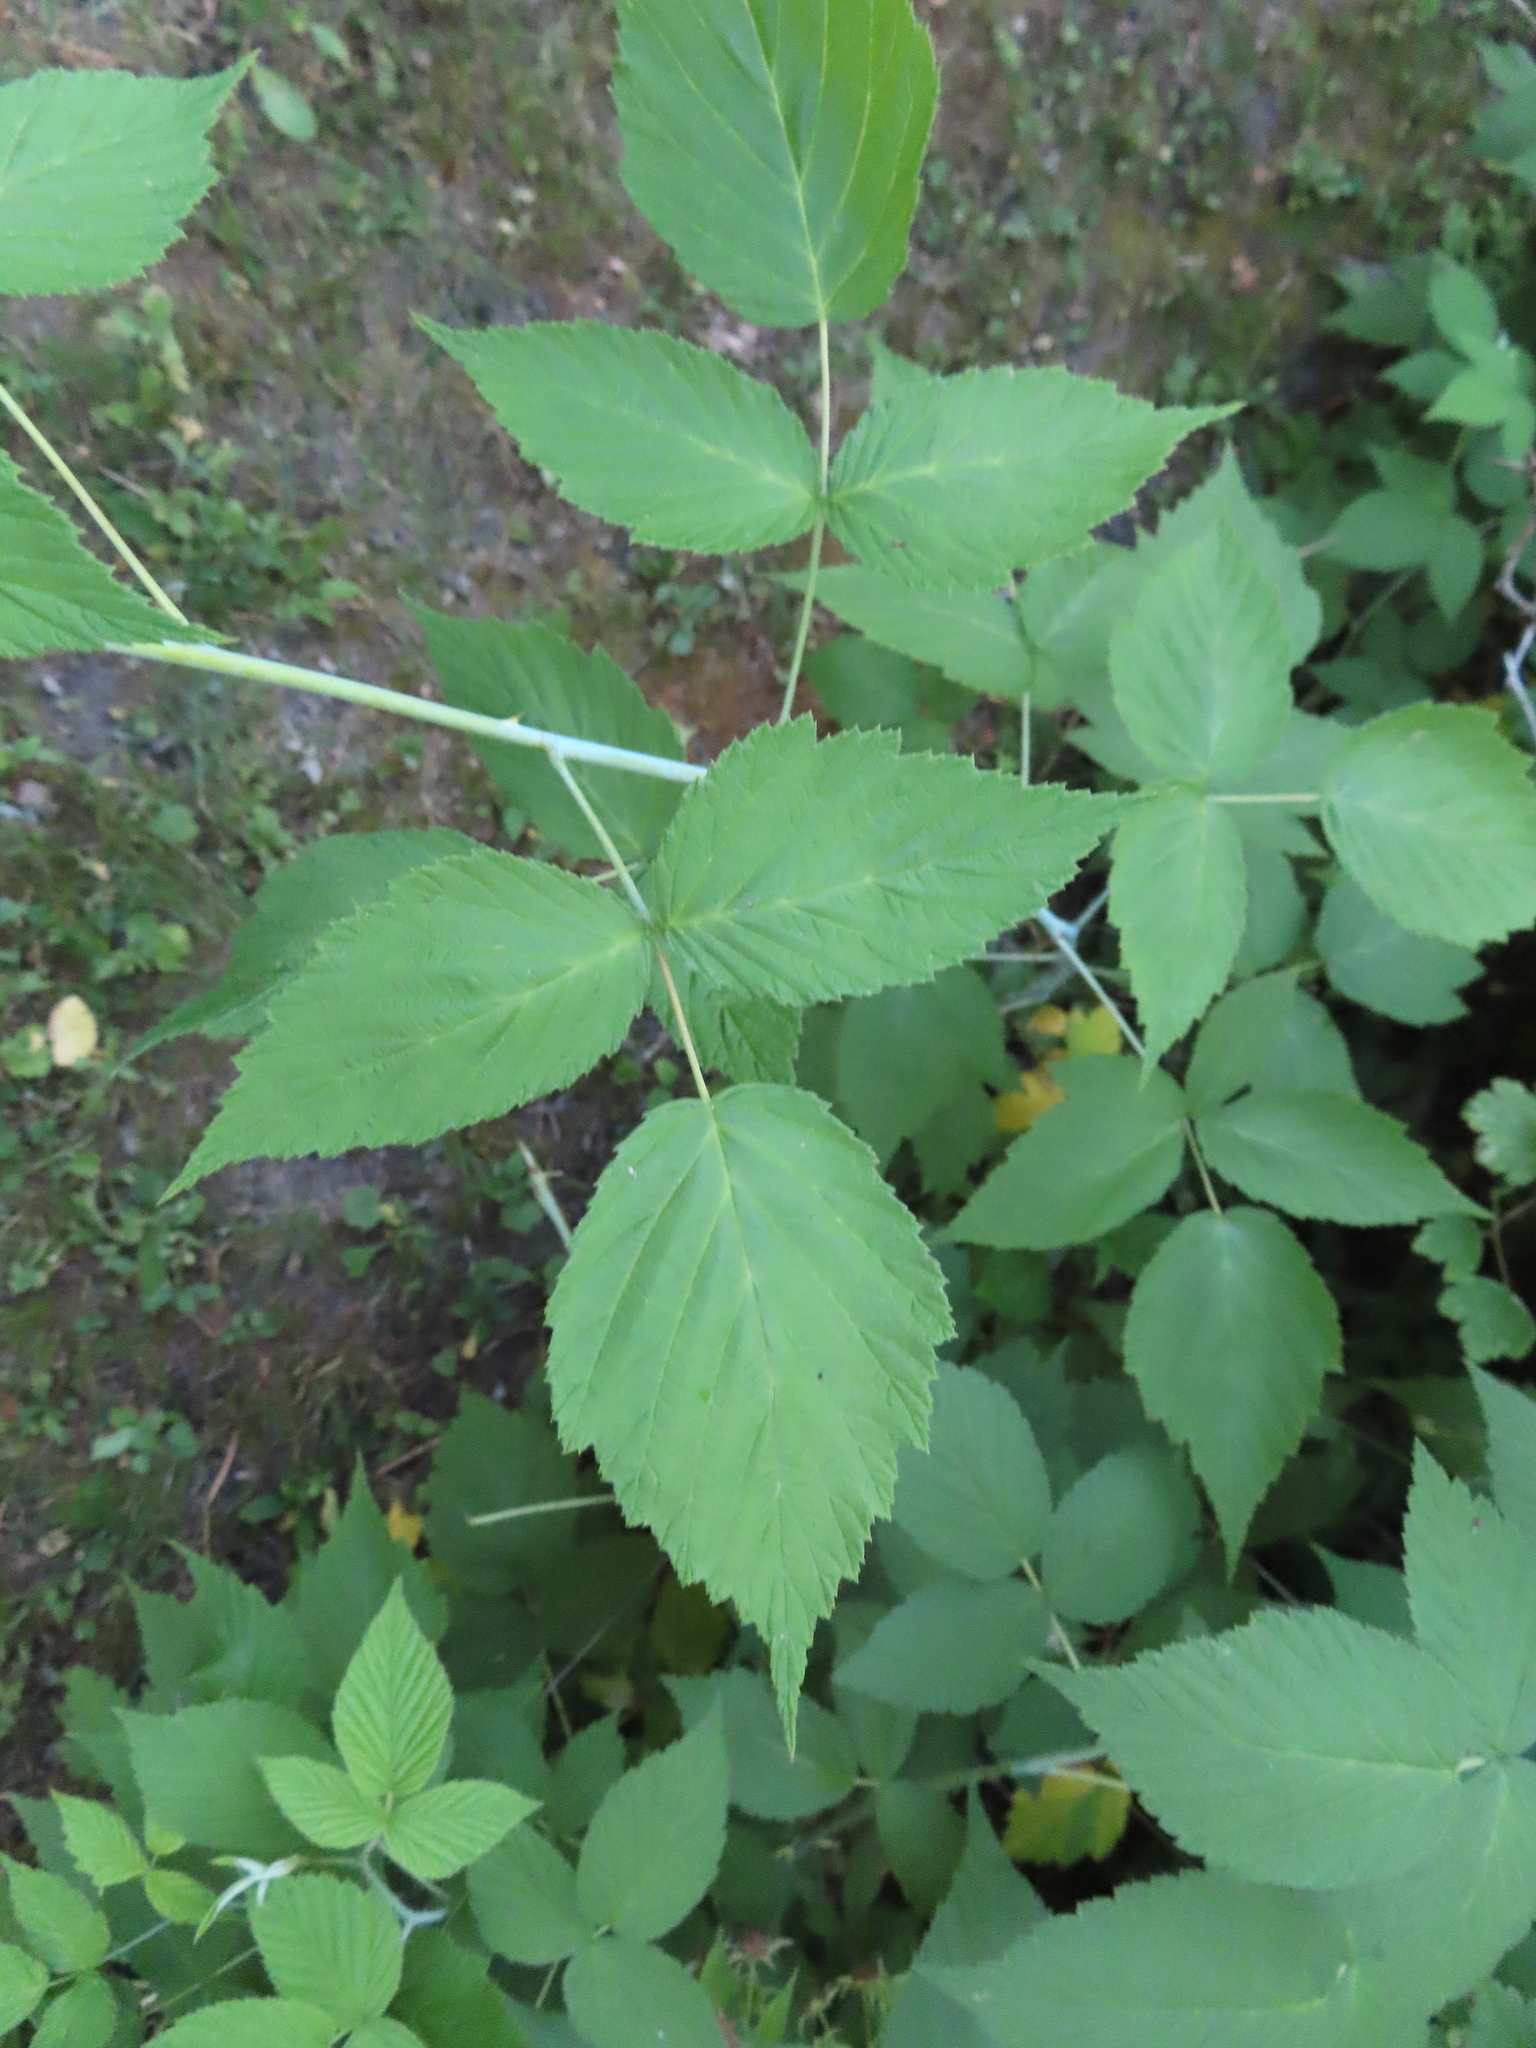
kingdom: Plantae
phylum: Tracheophyta
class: Magnoliopsida
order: Rosales
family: Rosaceae
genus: Rubus
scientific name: Rubus occidentalis
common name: Black raspberry
